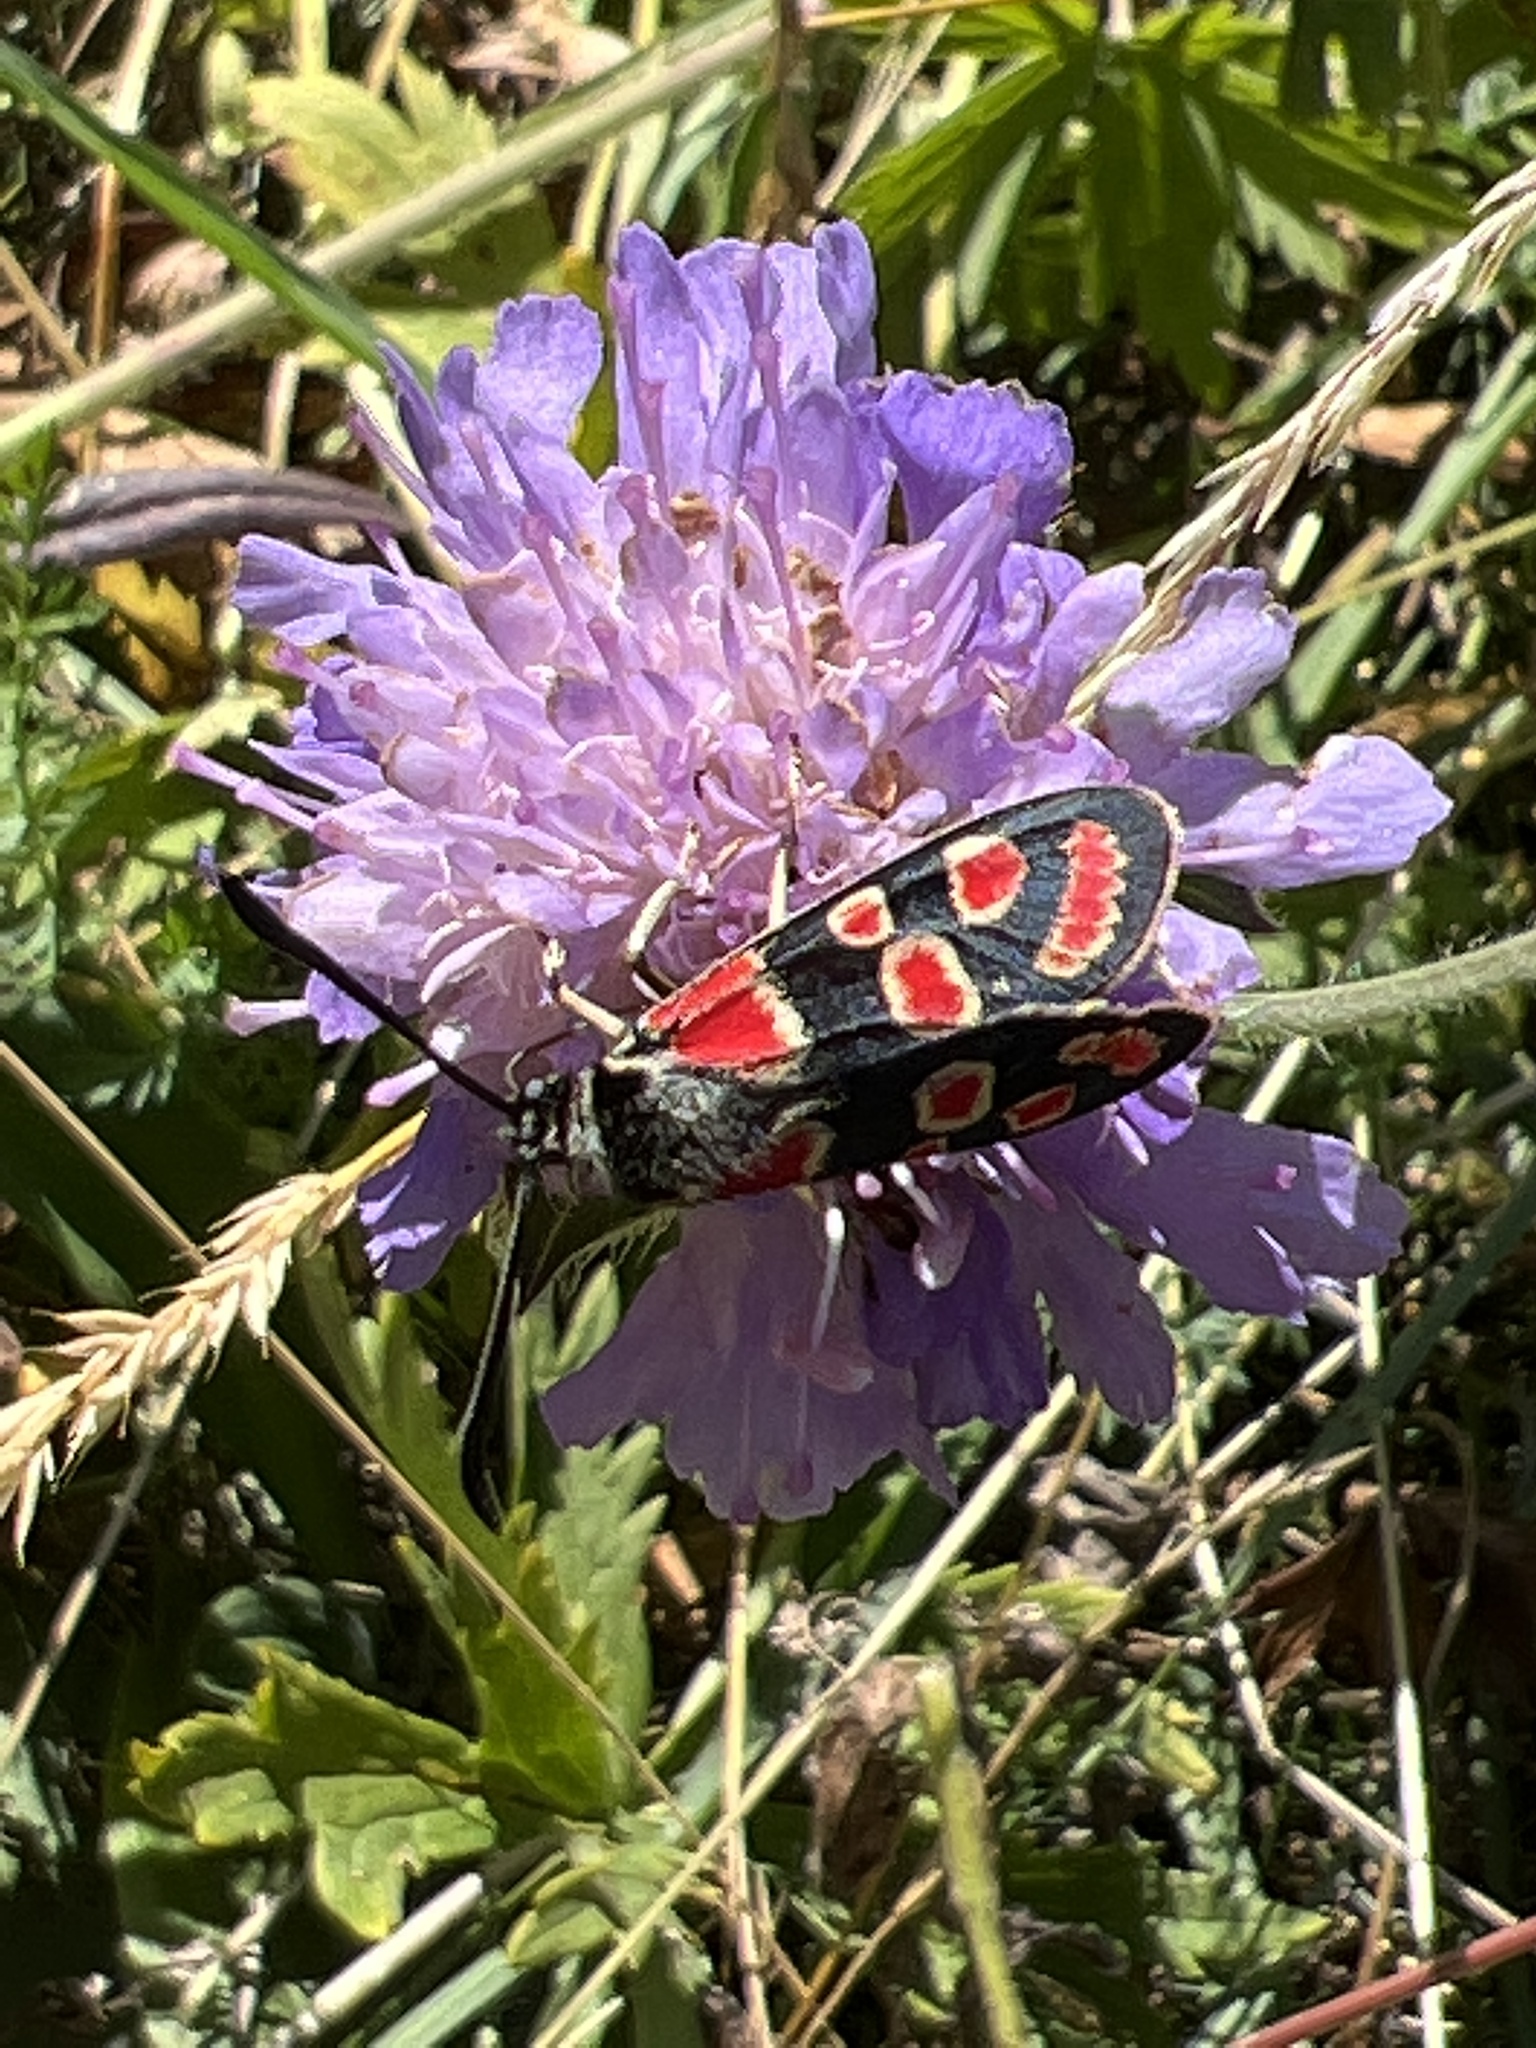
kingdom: Animalia
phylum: Arthropoda
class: Insecta
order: Lepidoptera
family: Zygaenidae
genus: Zygaena
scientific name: Zygaena carniolica
